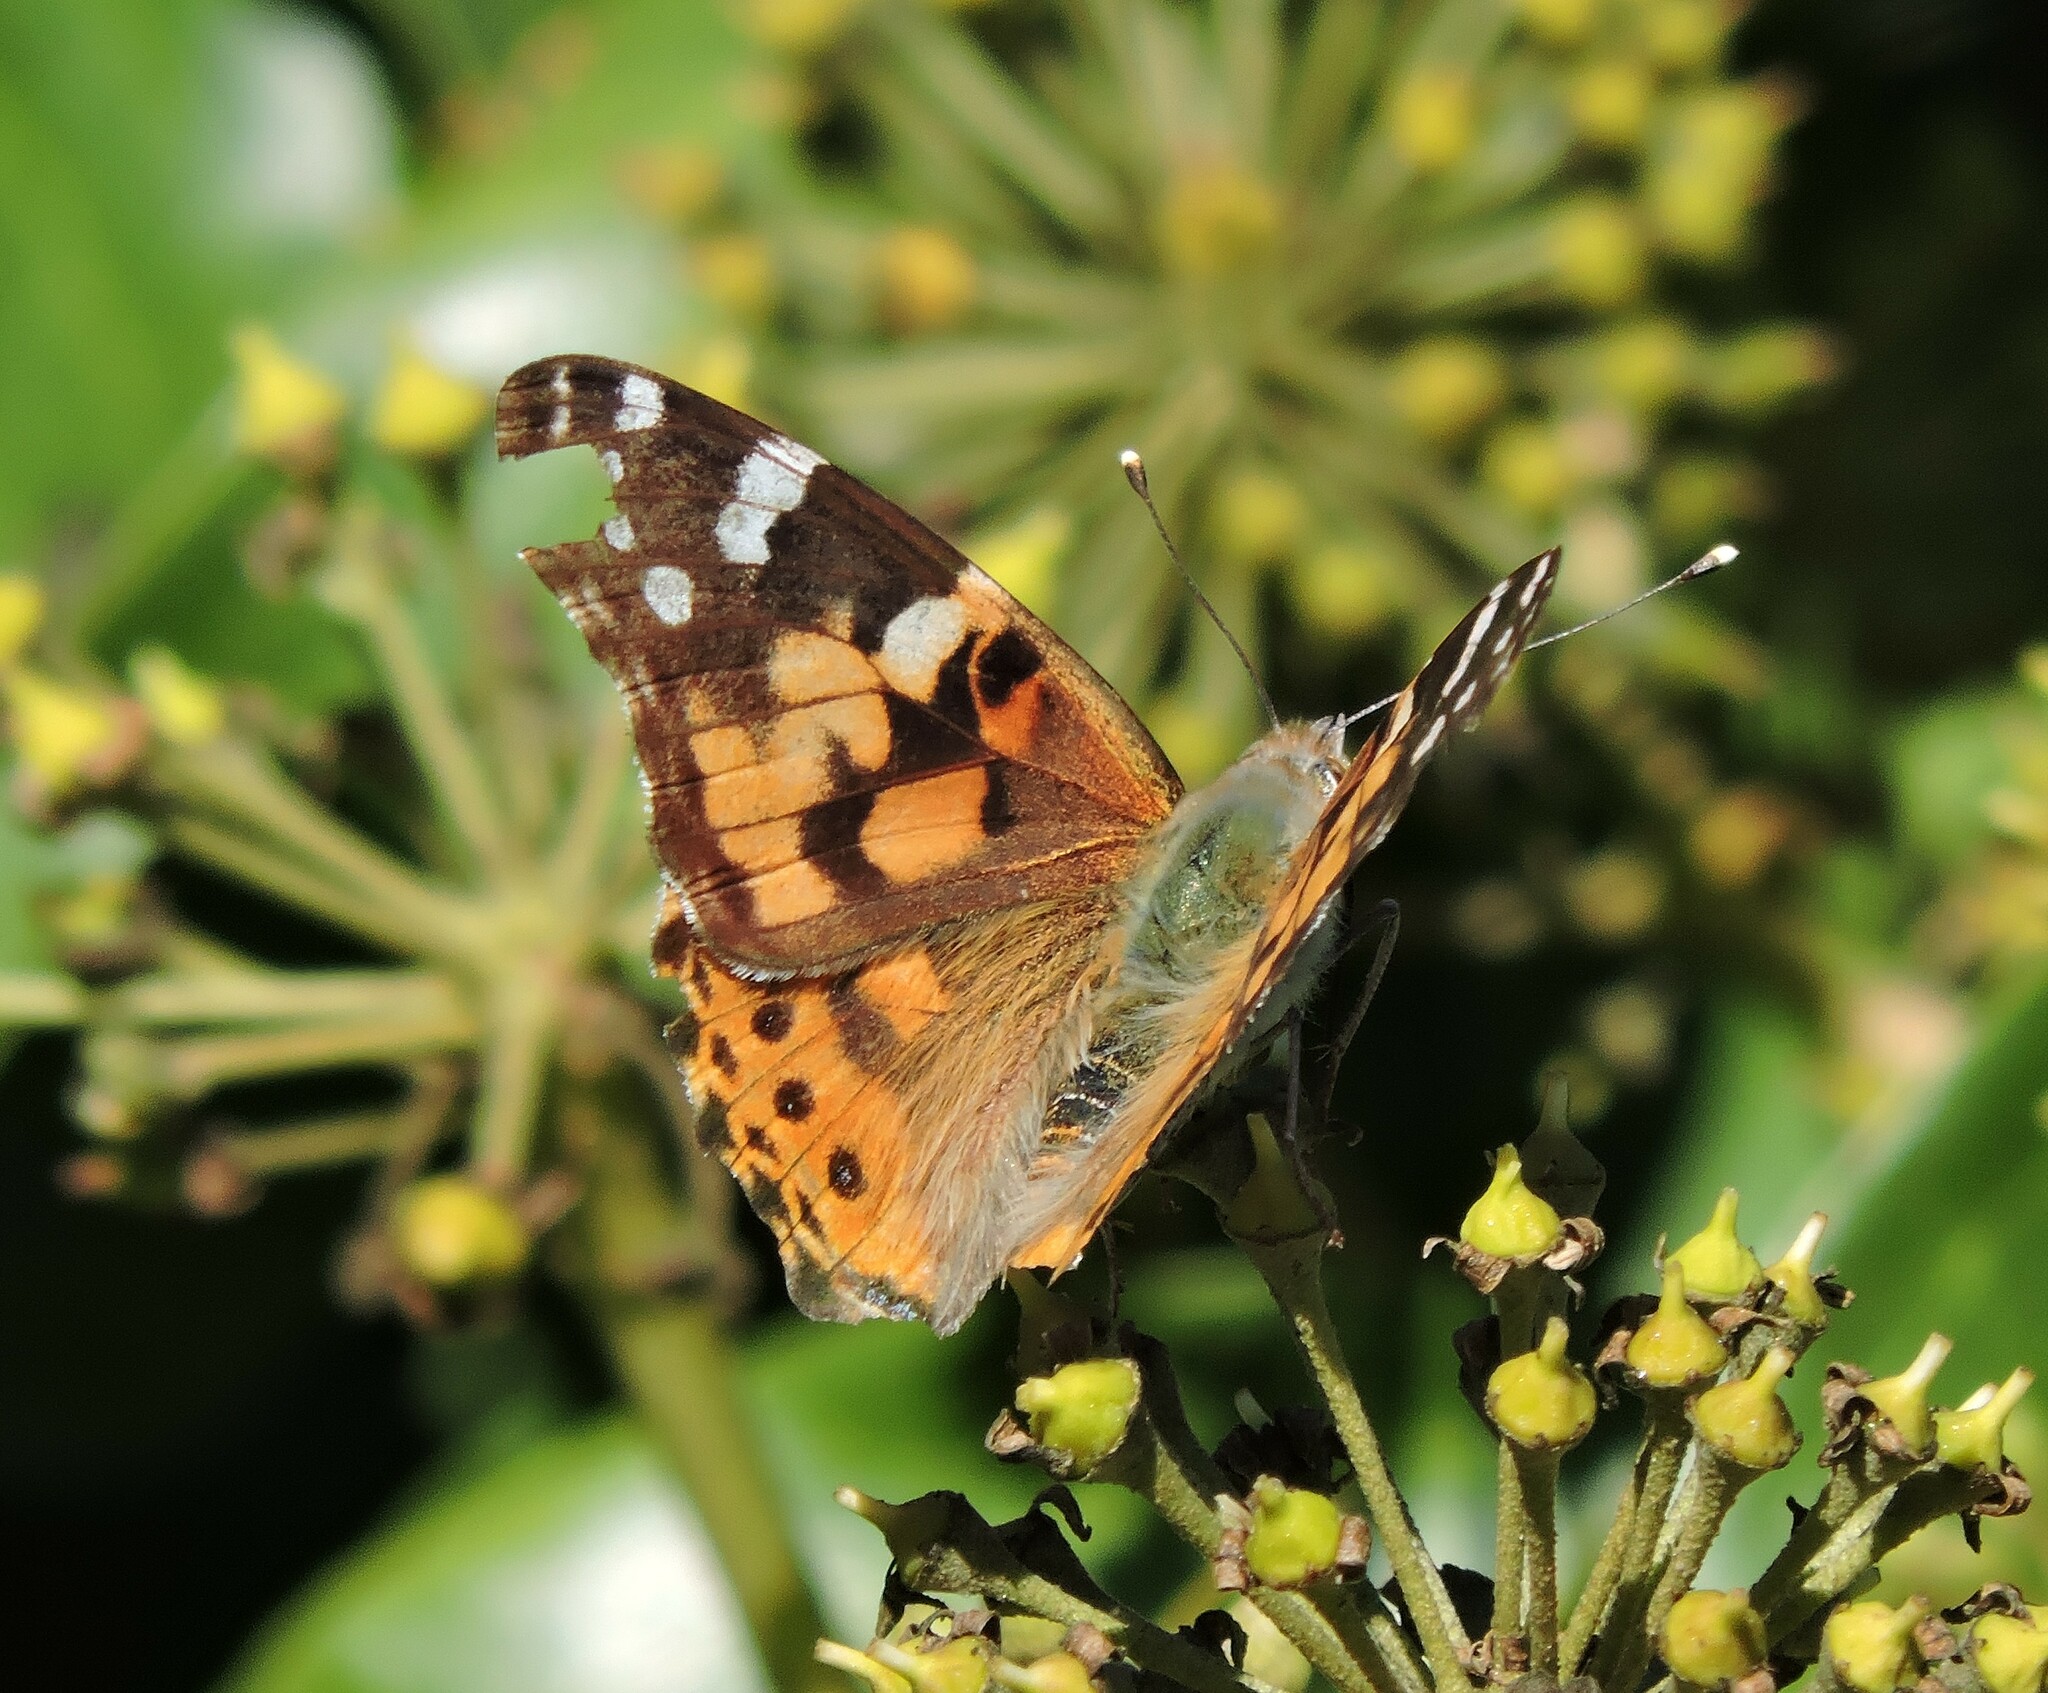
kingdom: Animalia
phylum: Arthropoda
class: Insecta
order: Lepidoptera
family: Nymphalidae
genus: Vanessa
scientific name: Vanessa cardui
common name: Painted lady
